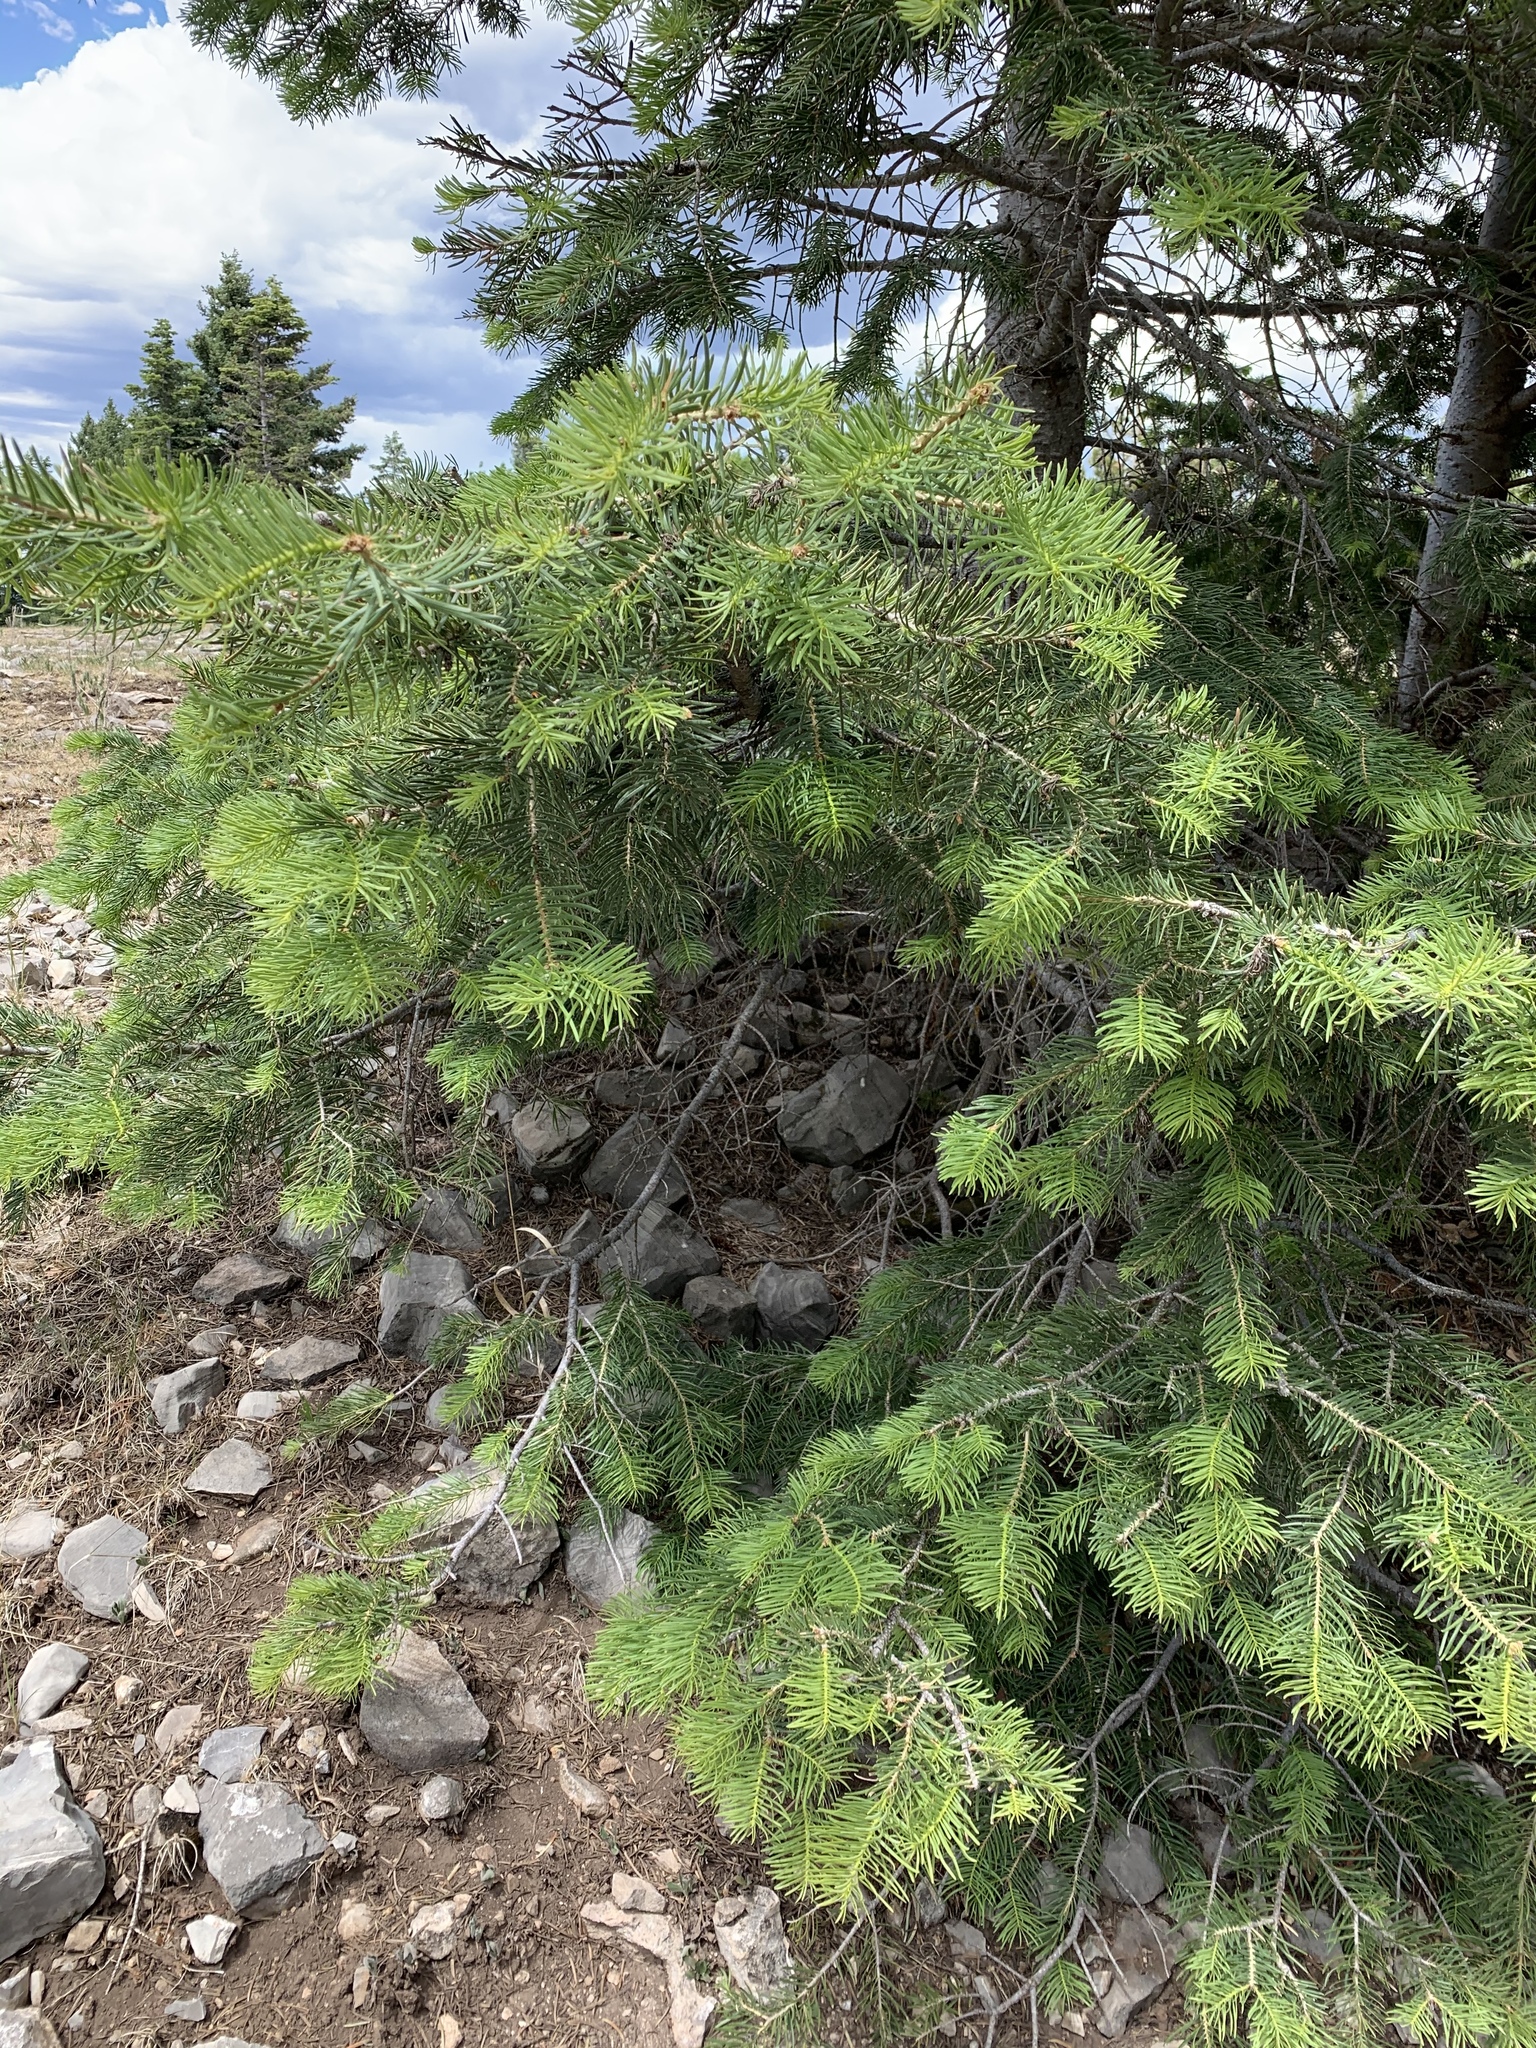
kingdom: Plantae
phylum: Tracheophyta
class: Pinopsida
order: Pinales
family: Pinaceae
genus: Abies
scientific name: Abies concolor
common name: Colorado fir
